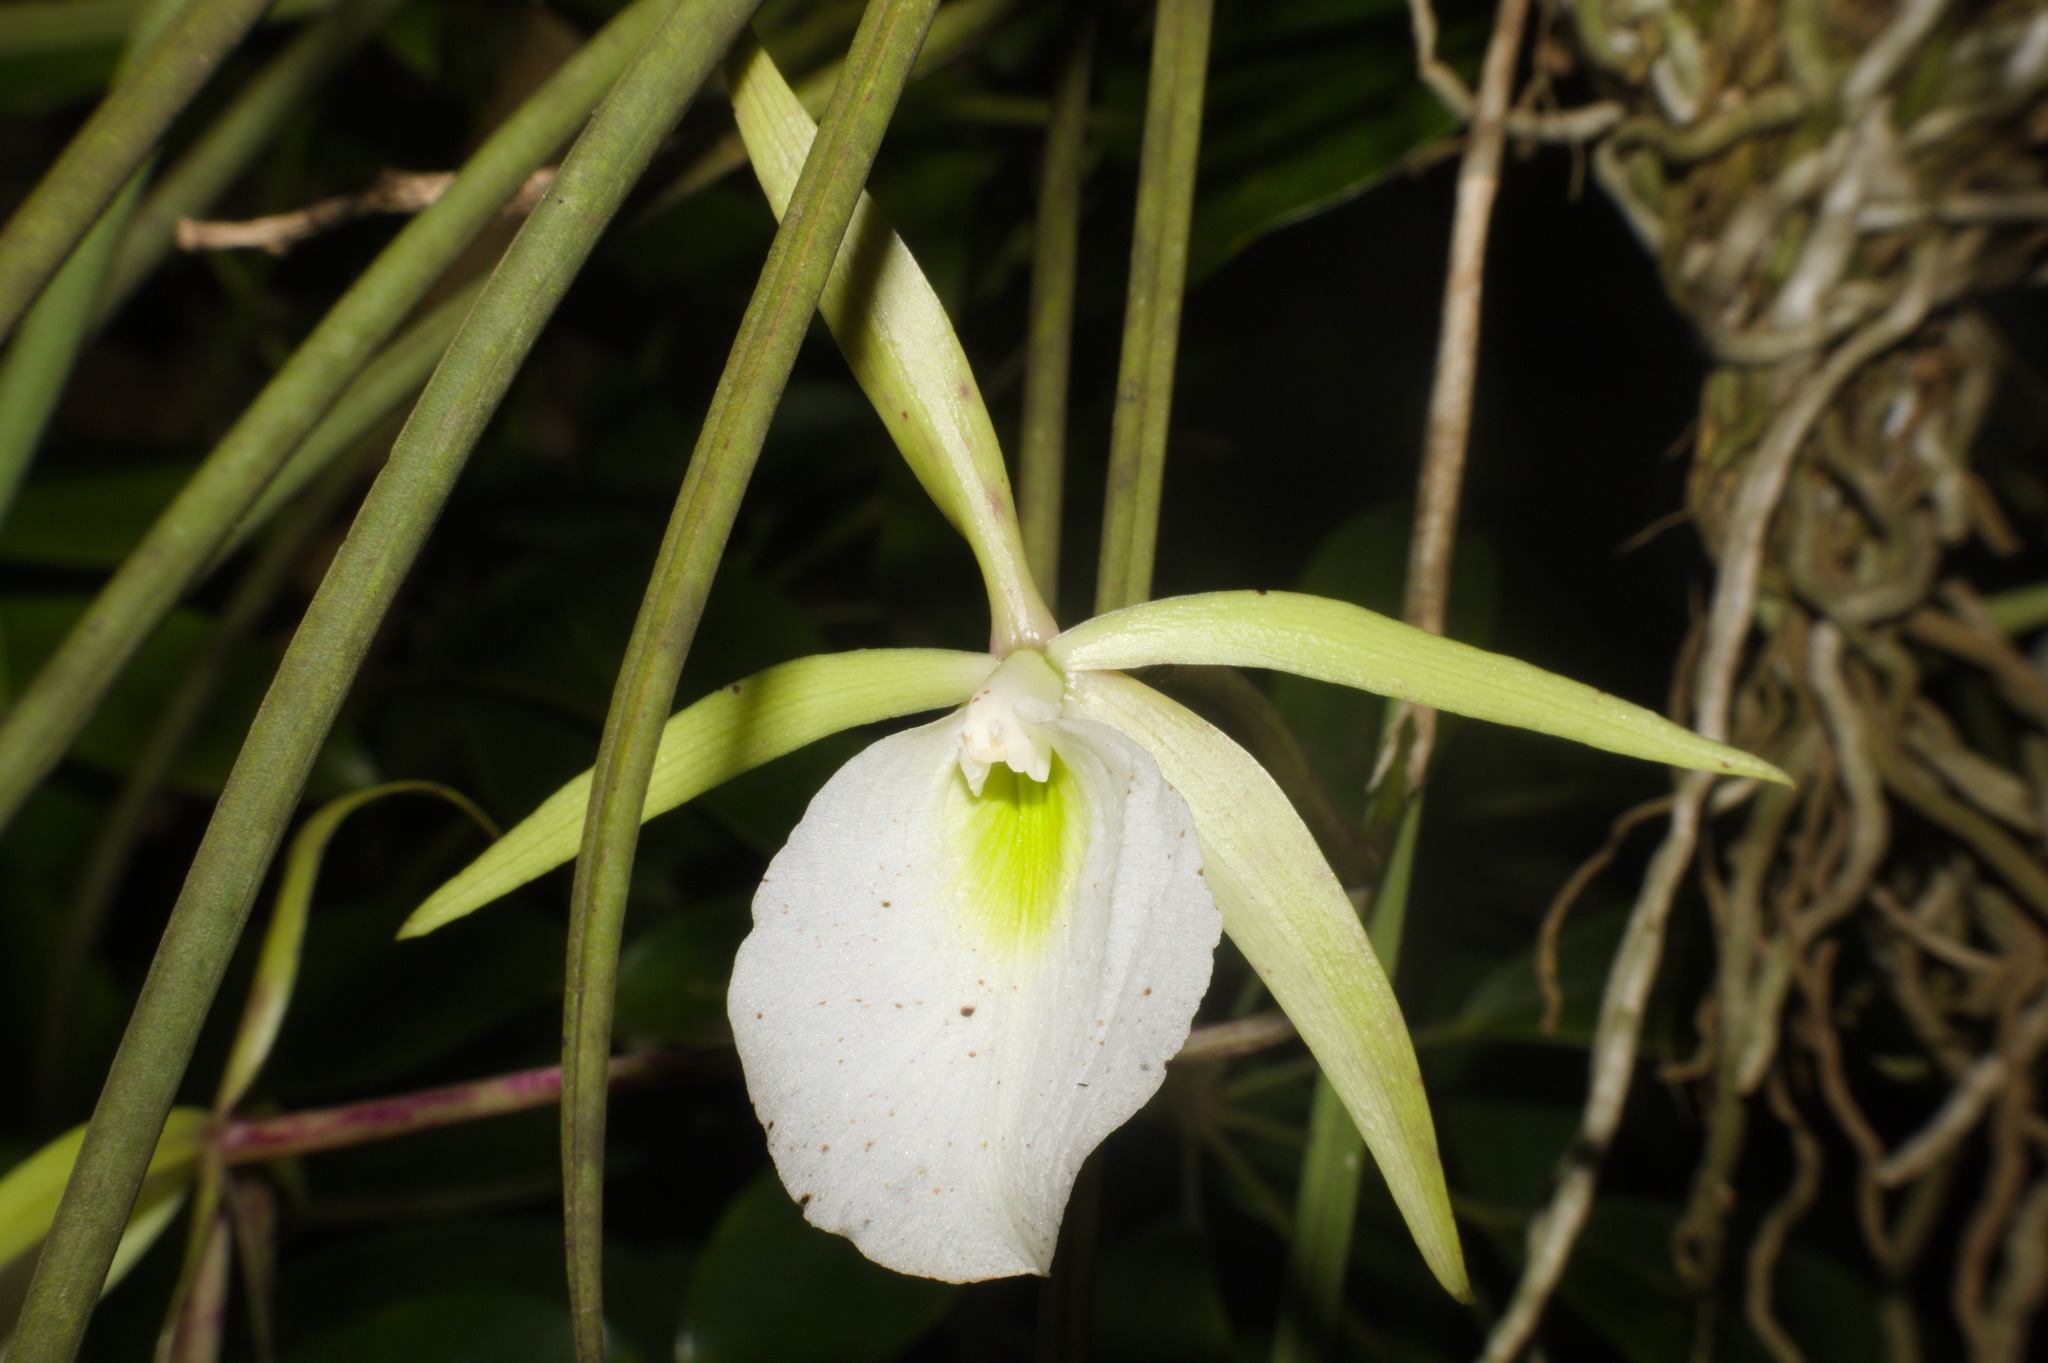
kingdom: Plantae
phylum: Tracheophyta
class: Liliopsida
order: Asparagales
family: Orchidaceae
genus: Brassavola
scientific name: Brassavola tuberculata
